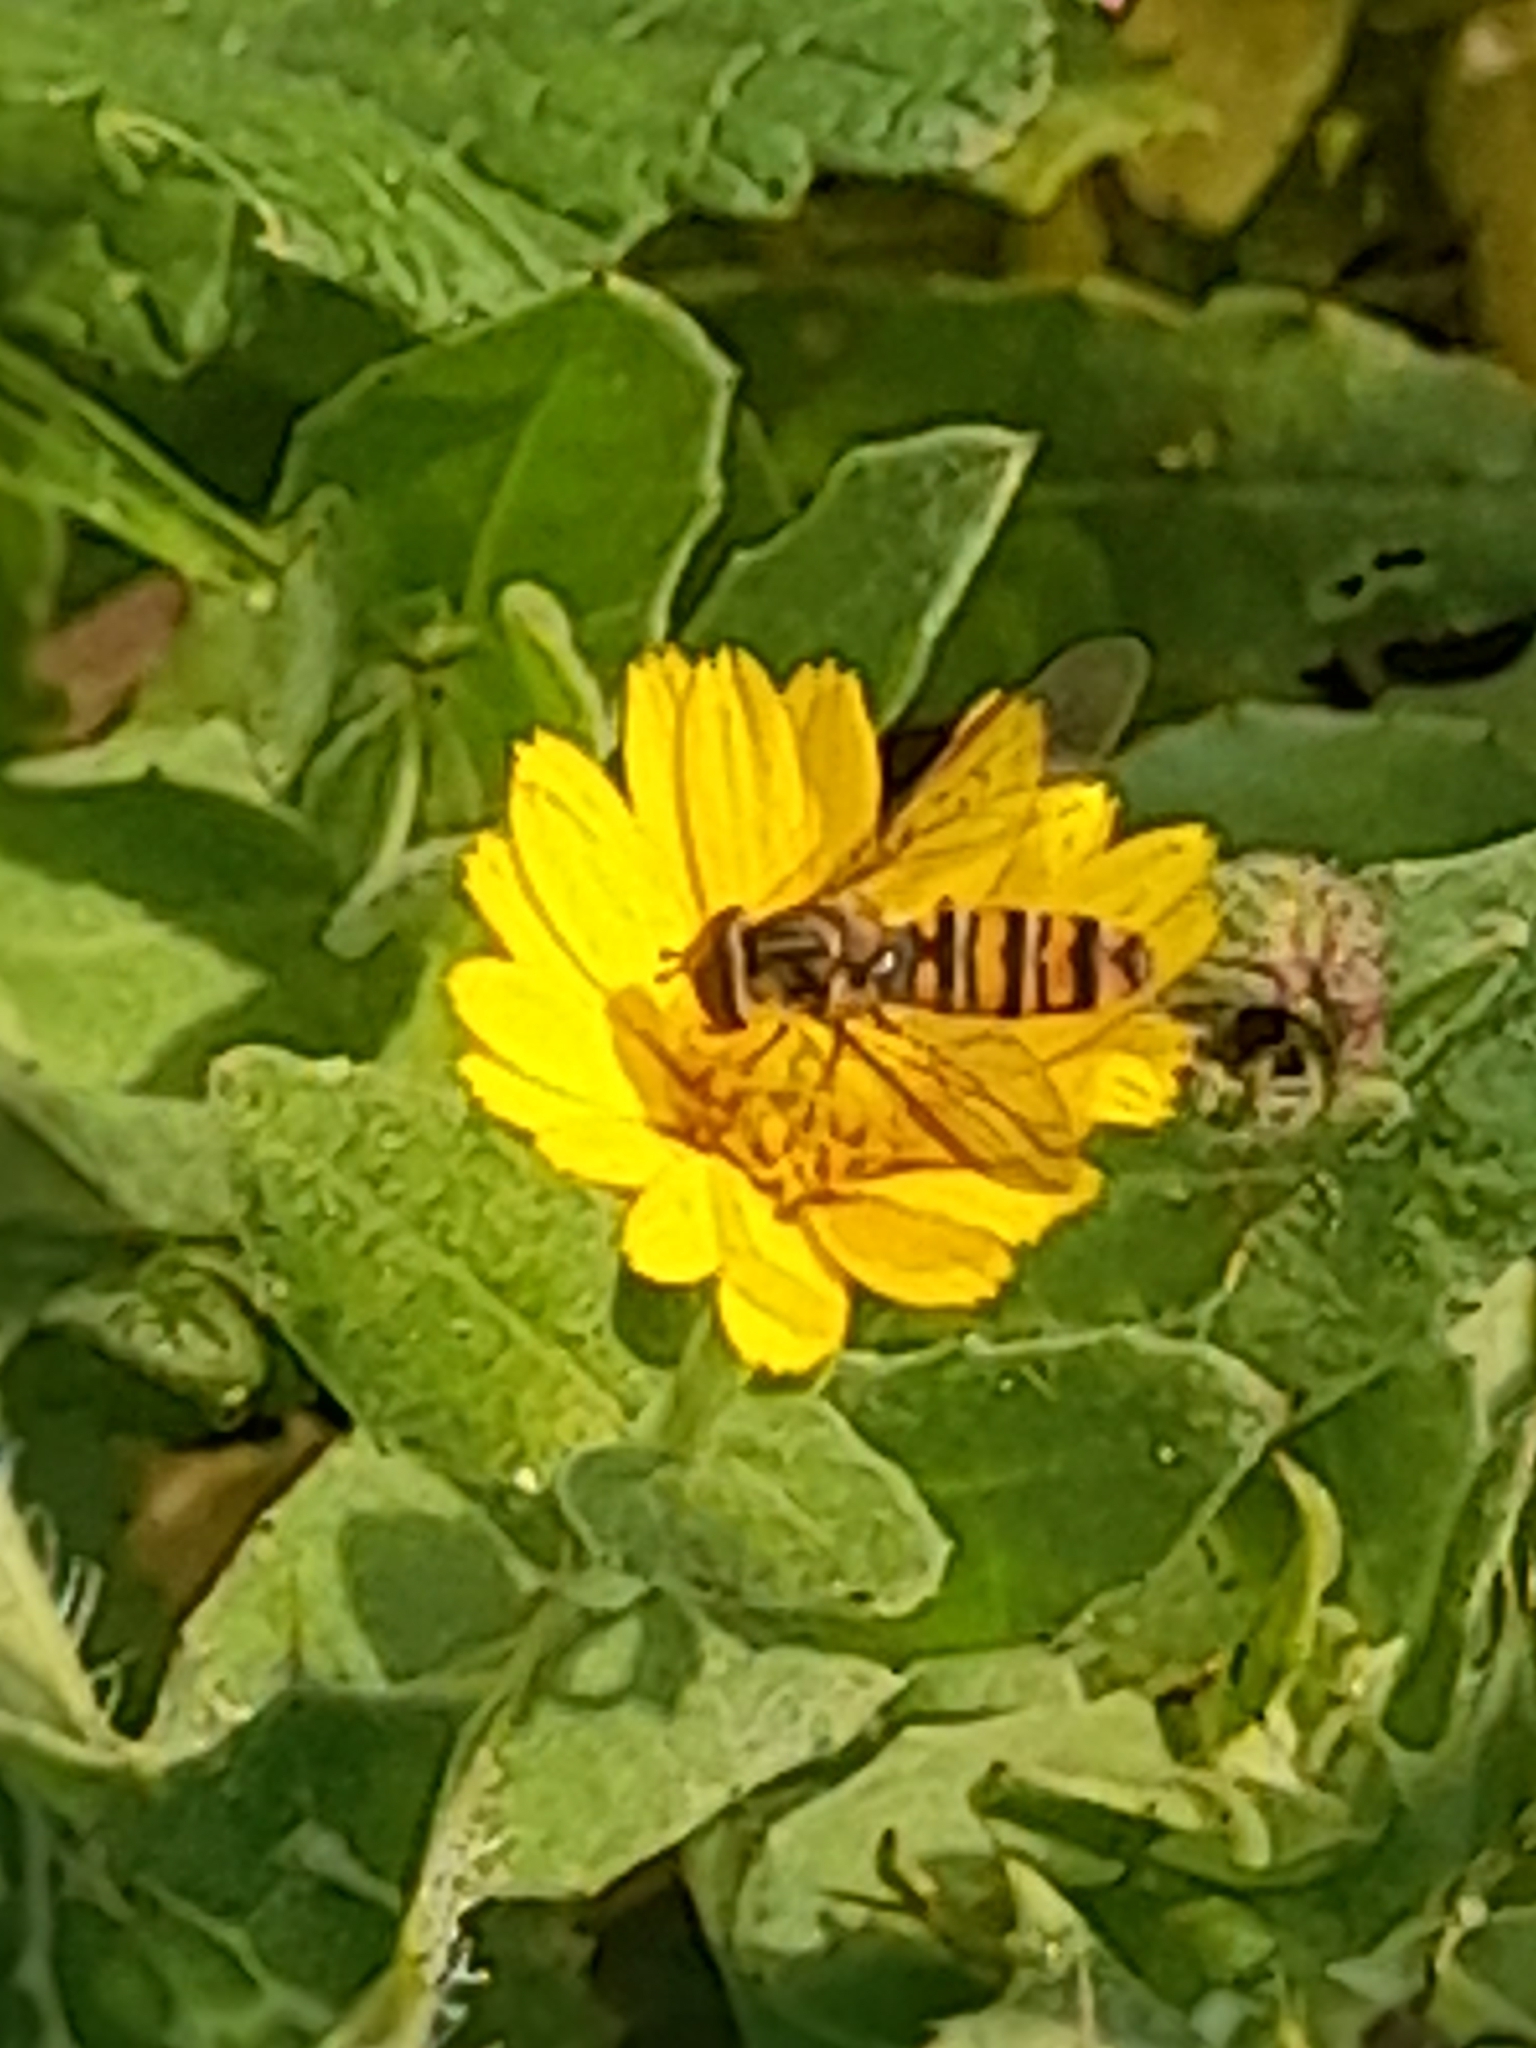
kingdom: Animalia
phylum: Arthropoda
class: Insecta
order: Diptera
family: Syrphidae
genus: Episyrphus
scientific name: Episyrphus balteatus
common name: Marmalade hoverfly
